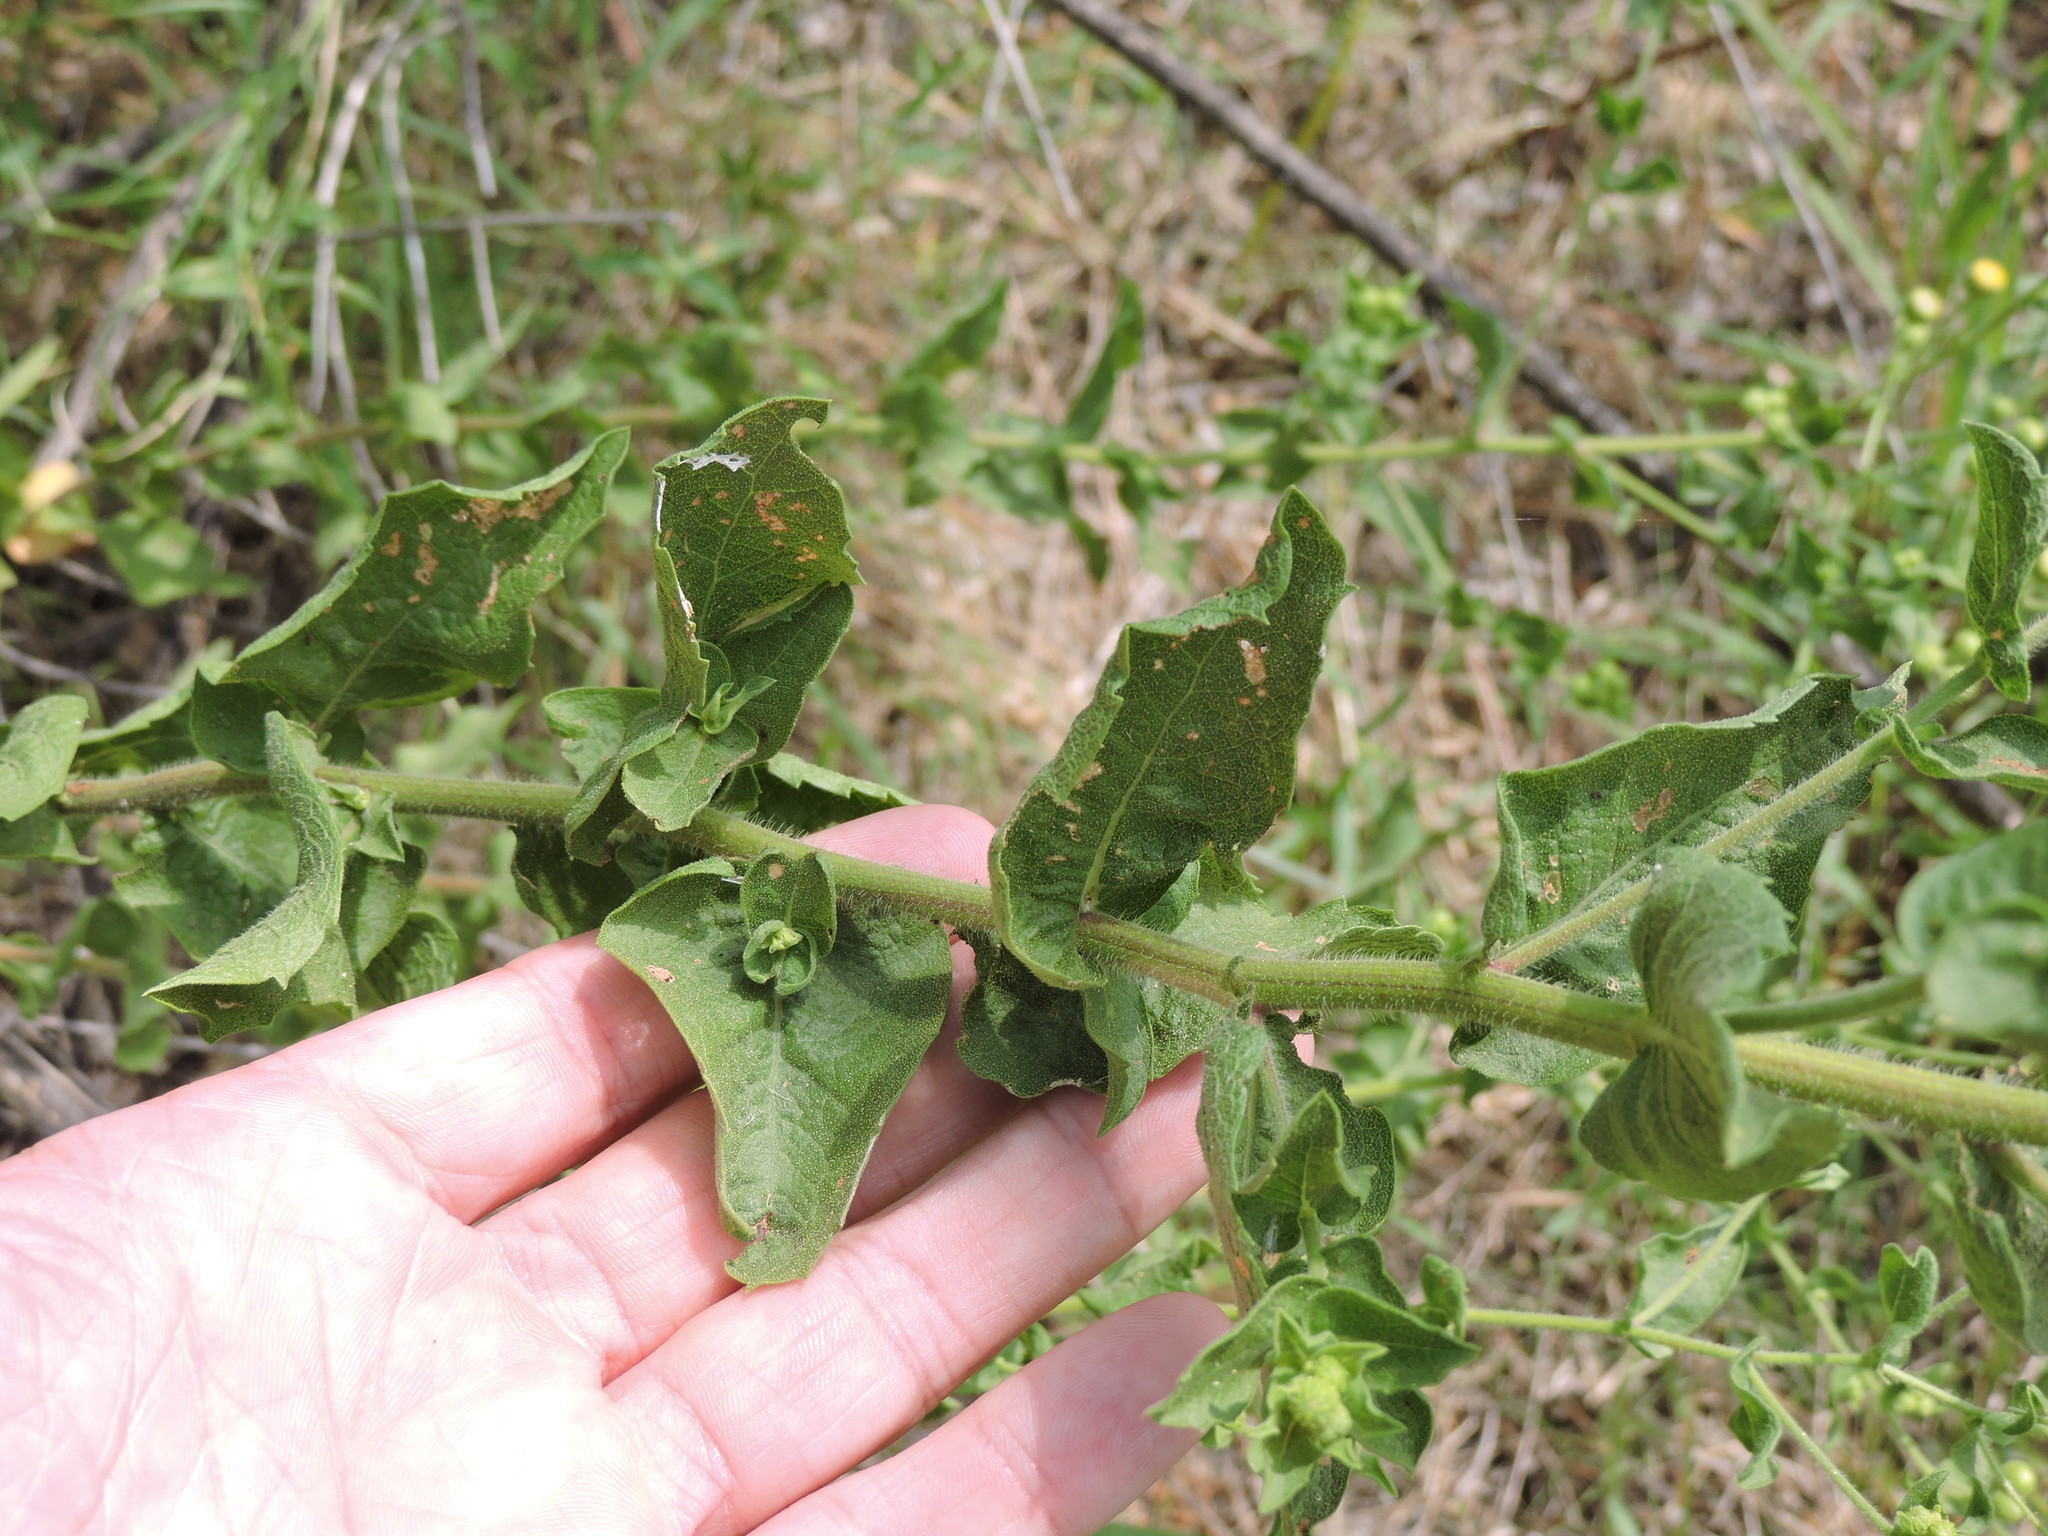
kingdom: Plantae
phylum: Tracheophyta
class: Magnoliopsida
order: Asterales
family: Asteraceae
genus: Heterotheca
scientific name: Heterotheca subaxillaris
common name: Camphorweed
